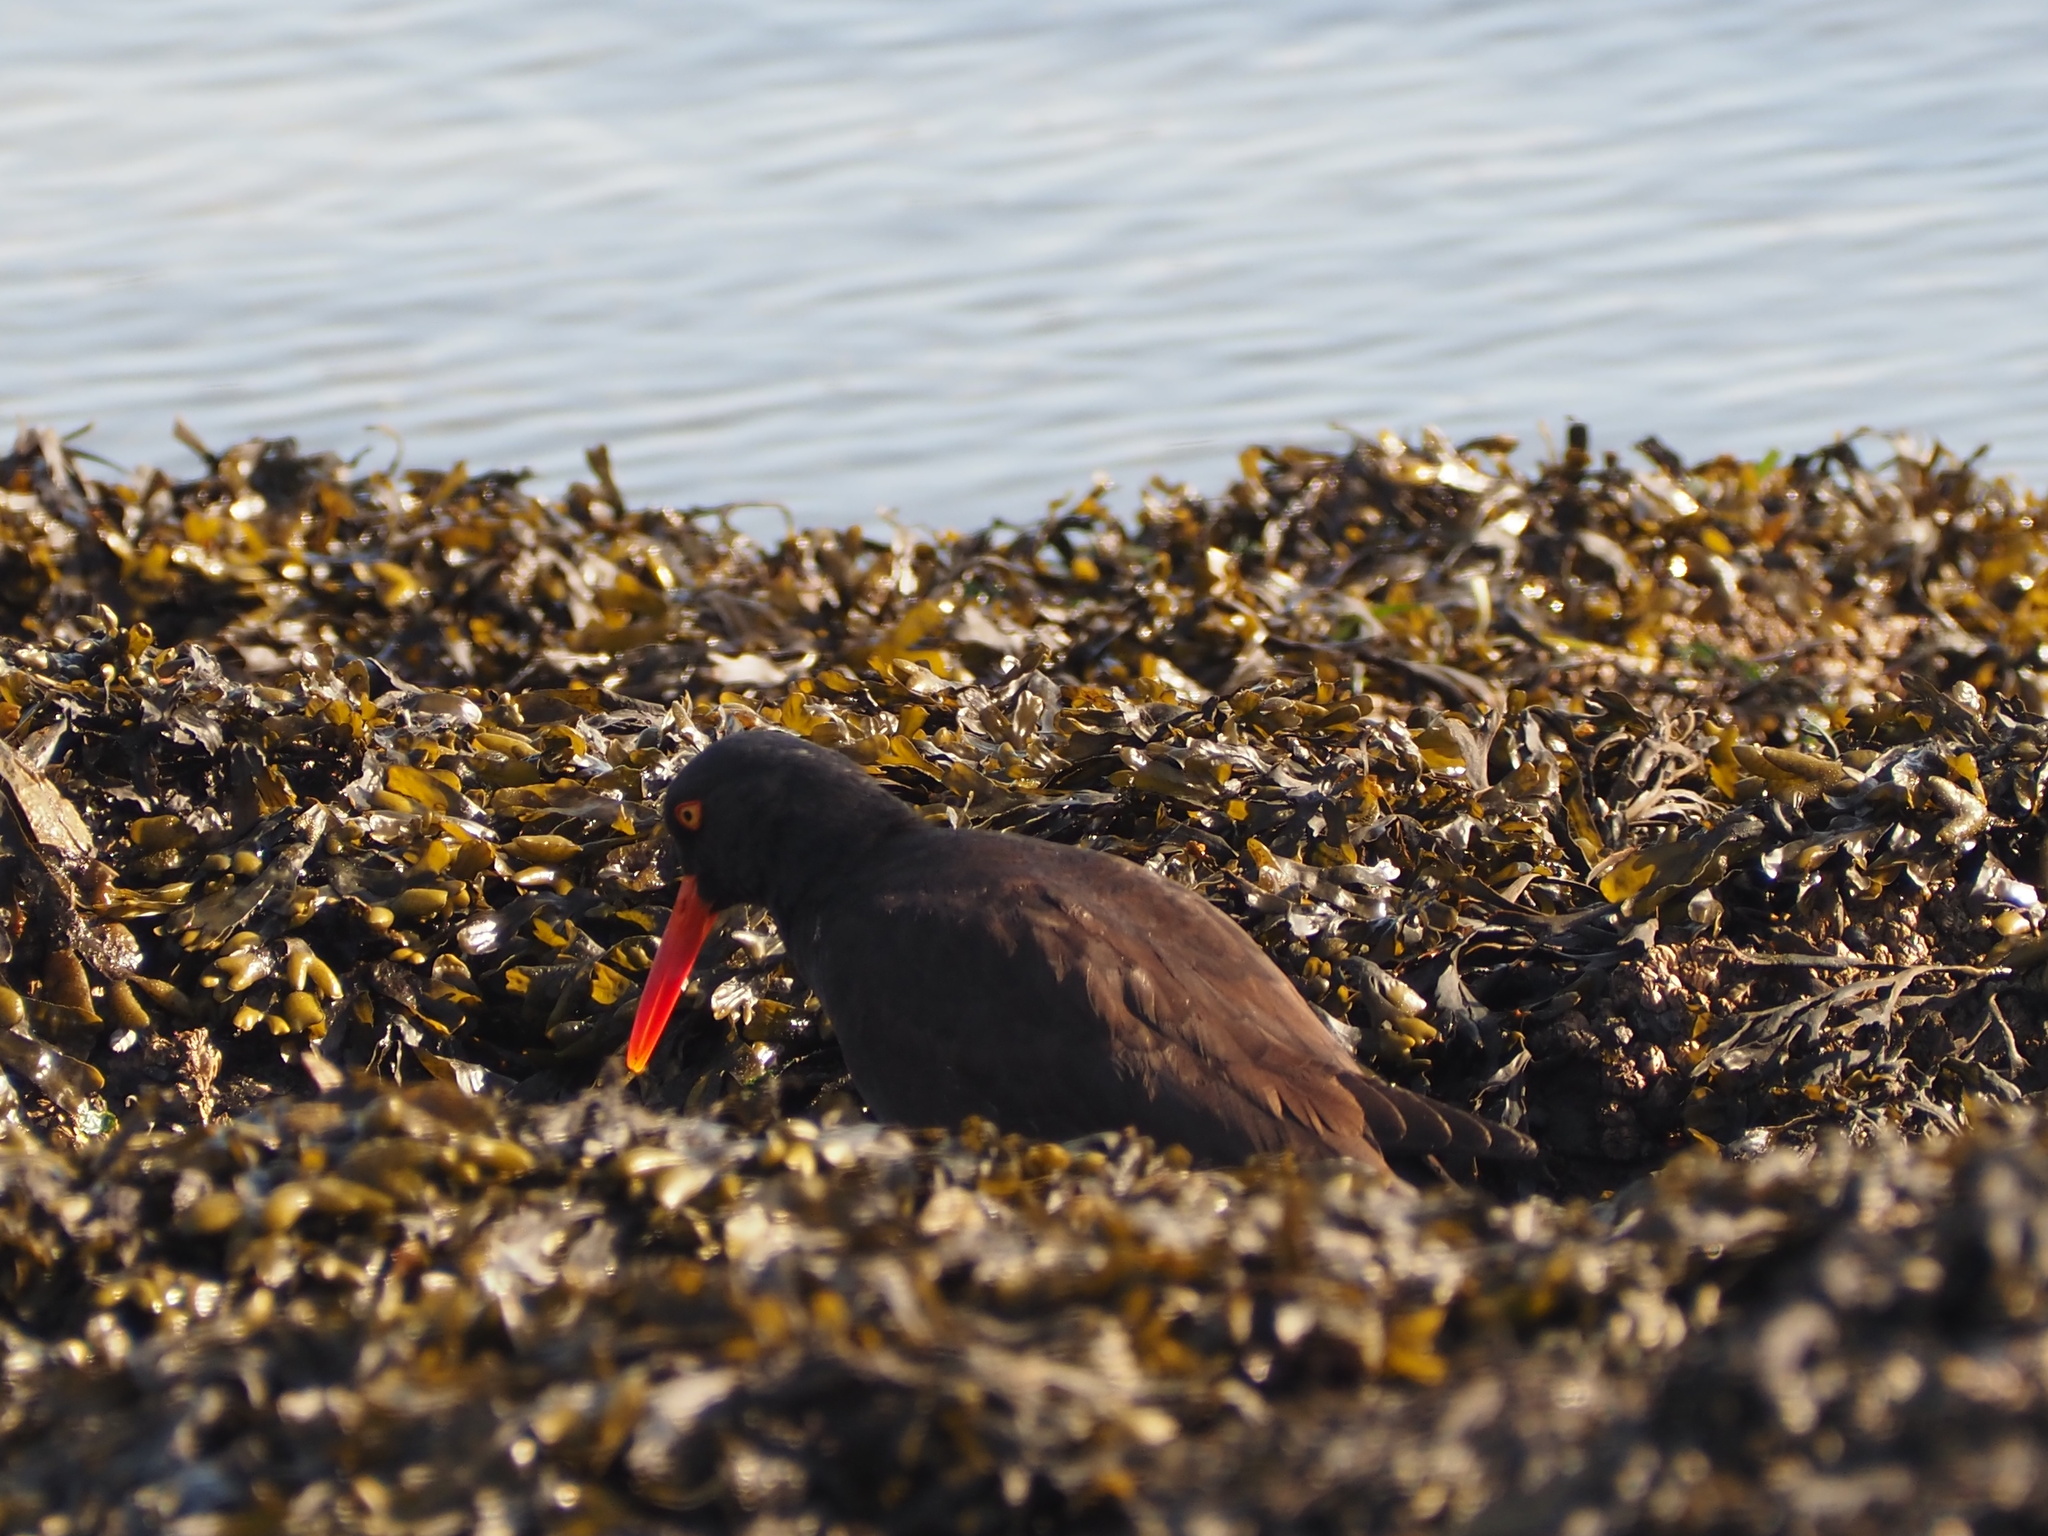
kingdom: Animalia
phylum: Chordata
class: Aves
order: Charadriiformes
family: Haematopodidae
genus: Haematopus
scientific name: Haematopus bachmani
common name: Black oystercatcher
